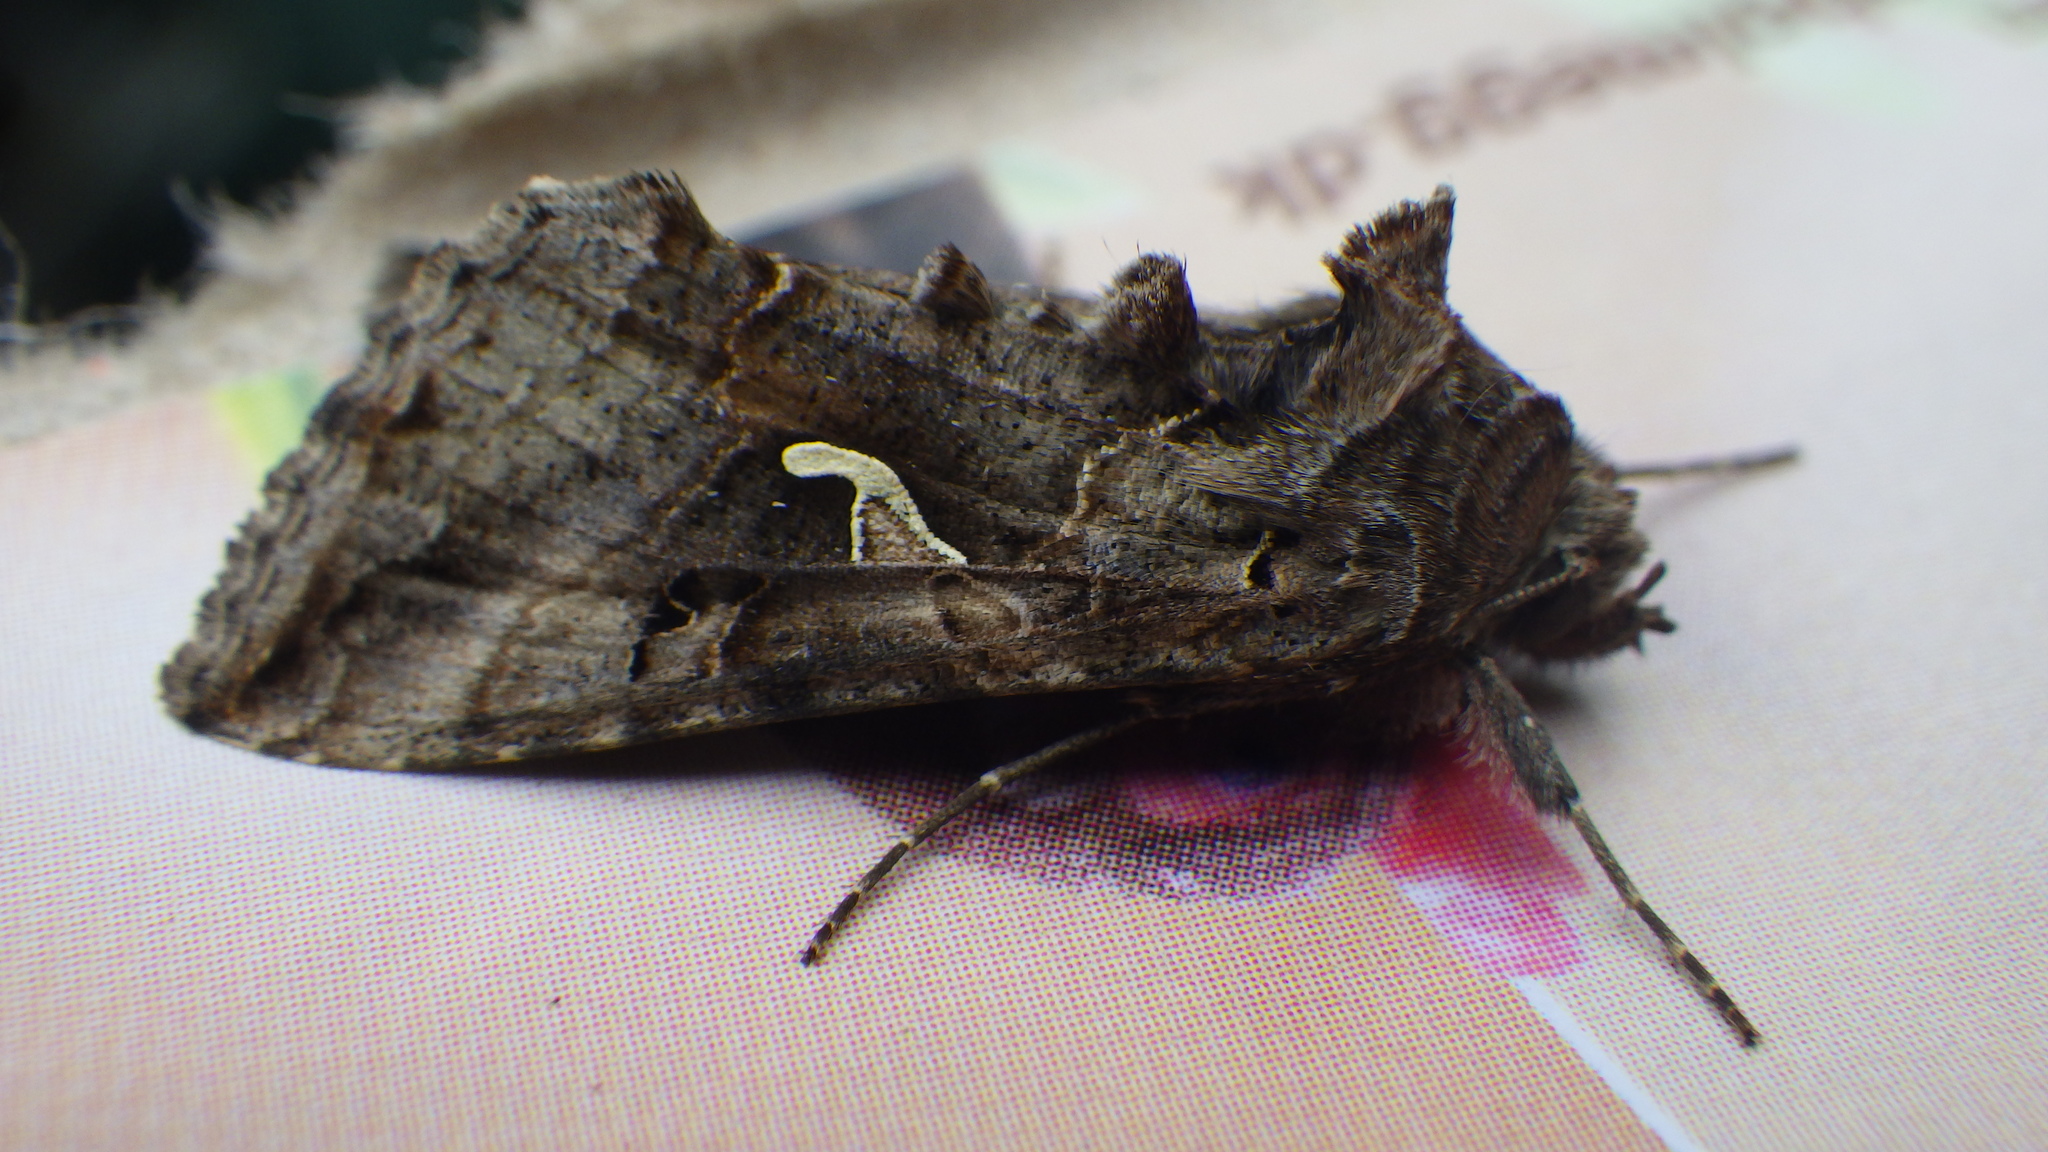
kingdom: Animalia
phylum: Arthropoda
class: Insecta
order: Lepidoptera
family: Noctuidae
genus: Autographa
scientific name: Autographa gamma
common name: Silver y
